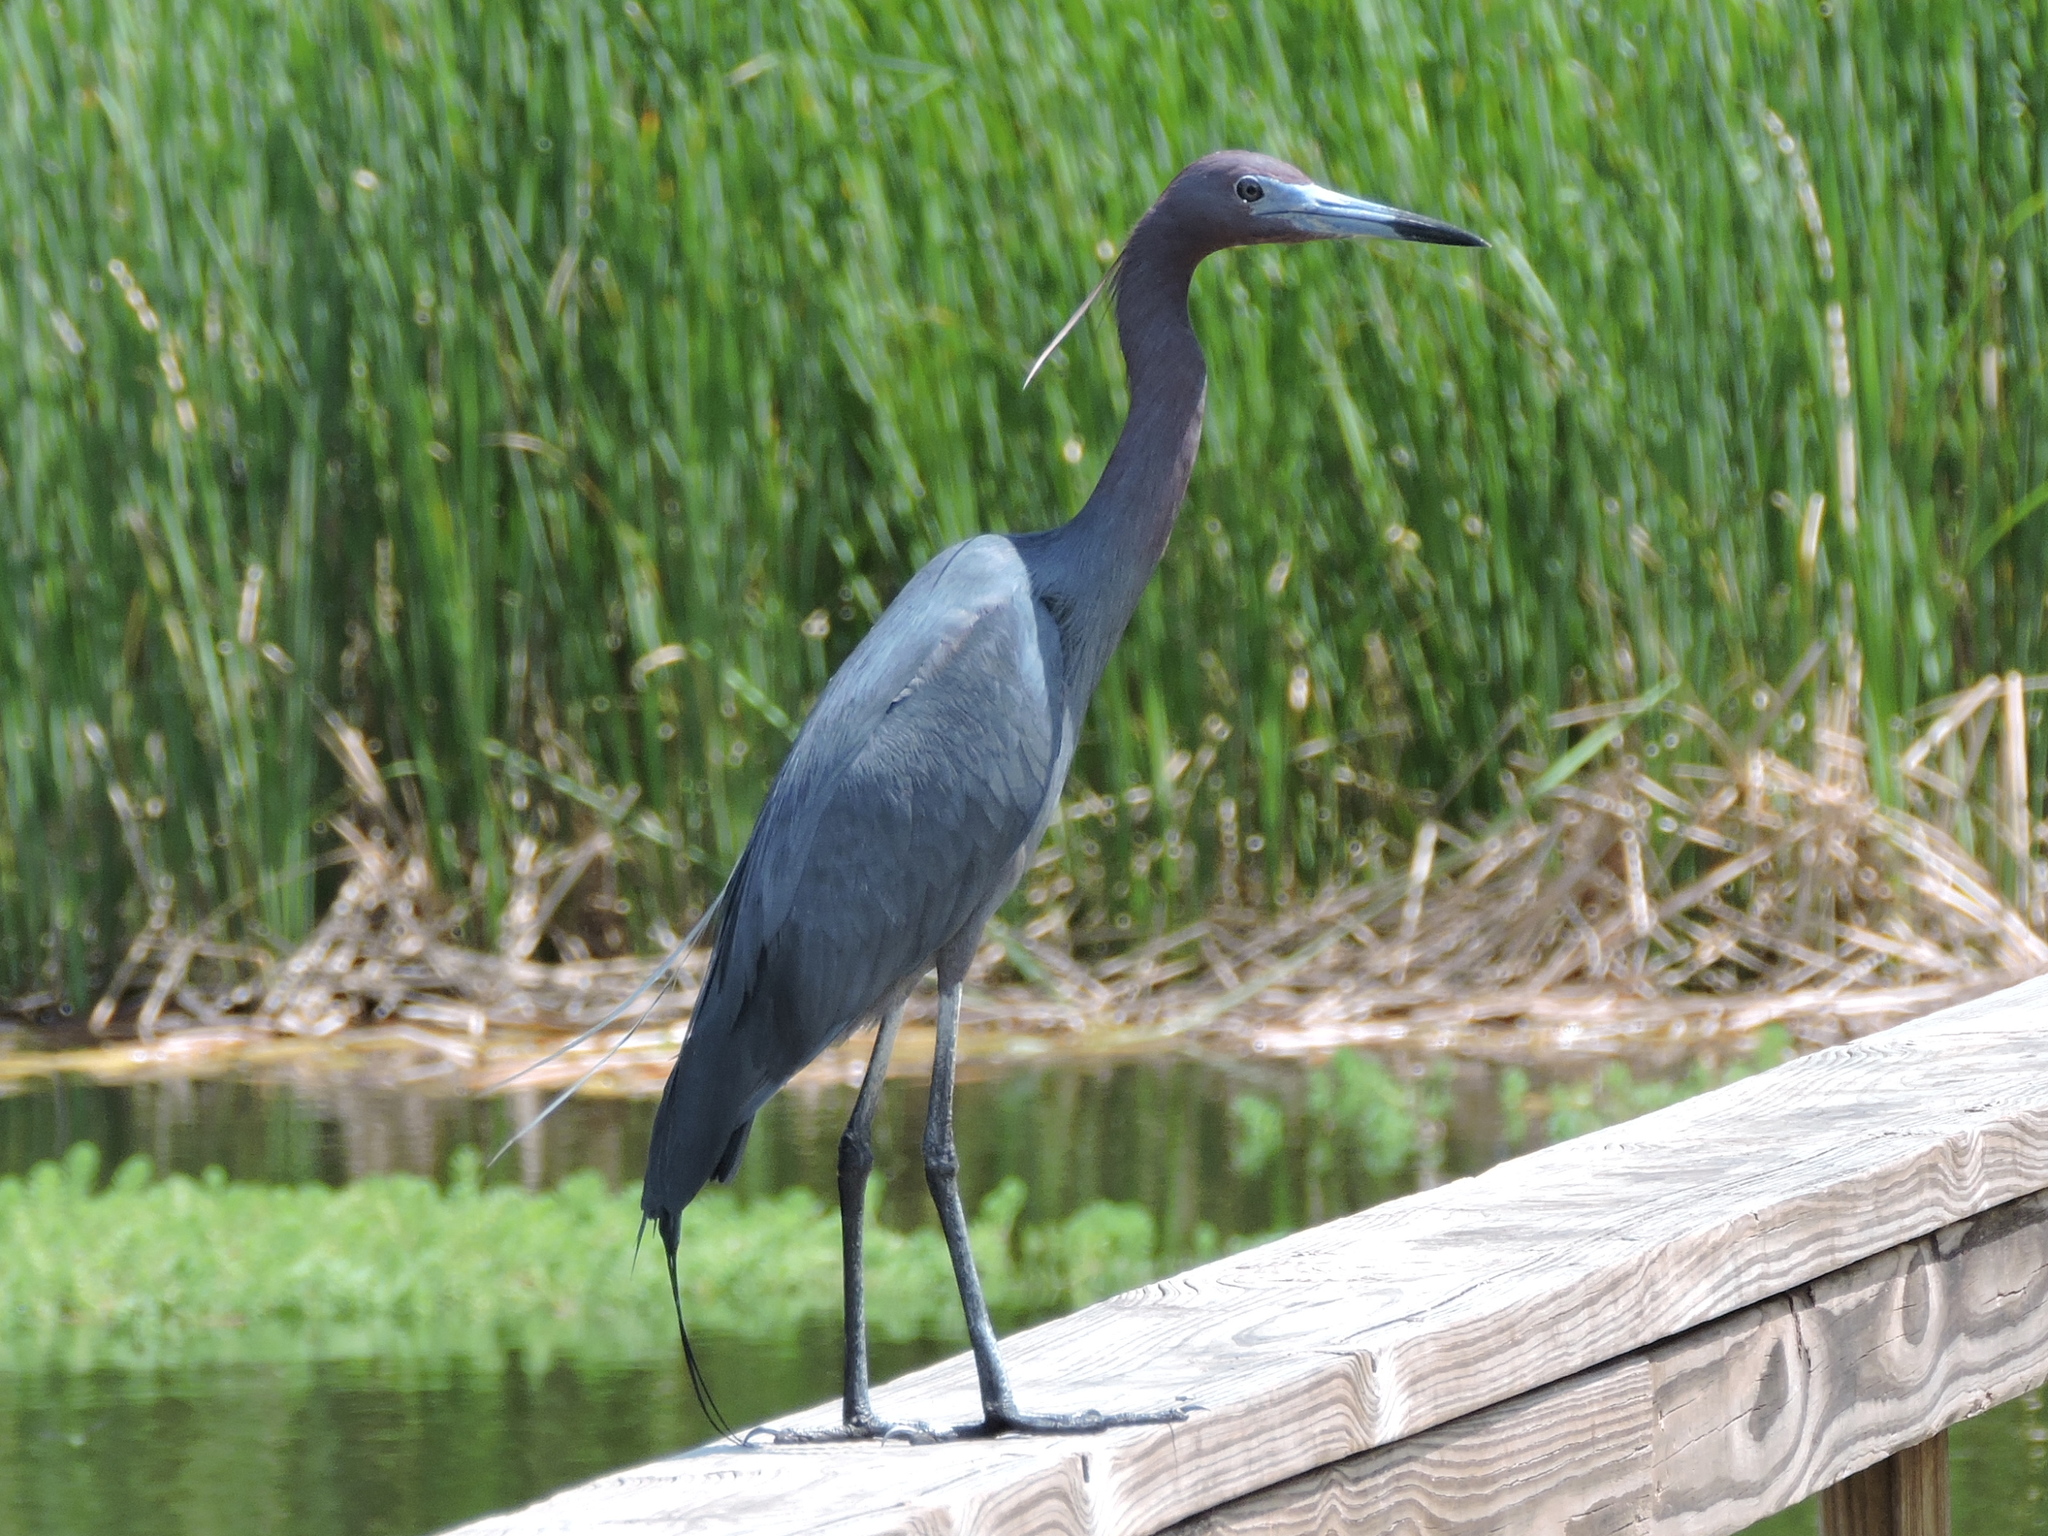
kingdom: Animalia
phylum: Chordata
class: Aves
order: Pelecaniformes
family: Ardeidae
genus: Egretta
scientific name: Egretta caerulea
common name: Little blue heron
